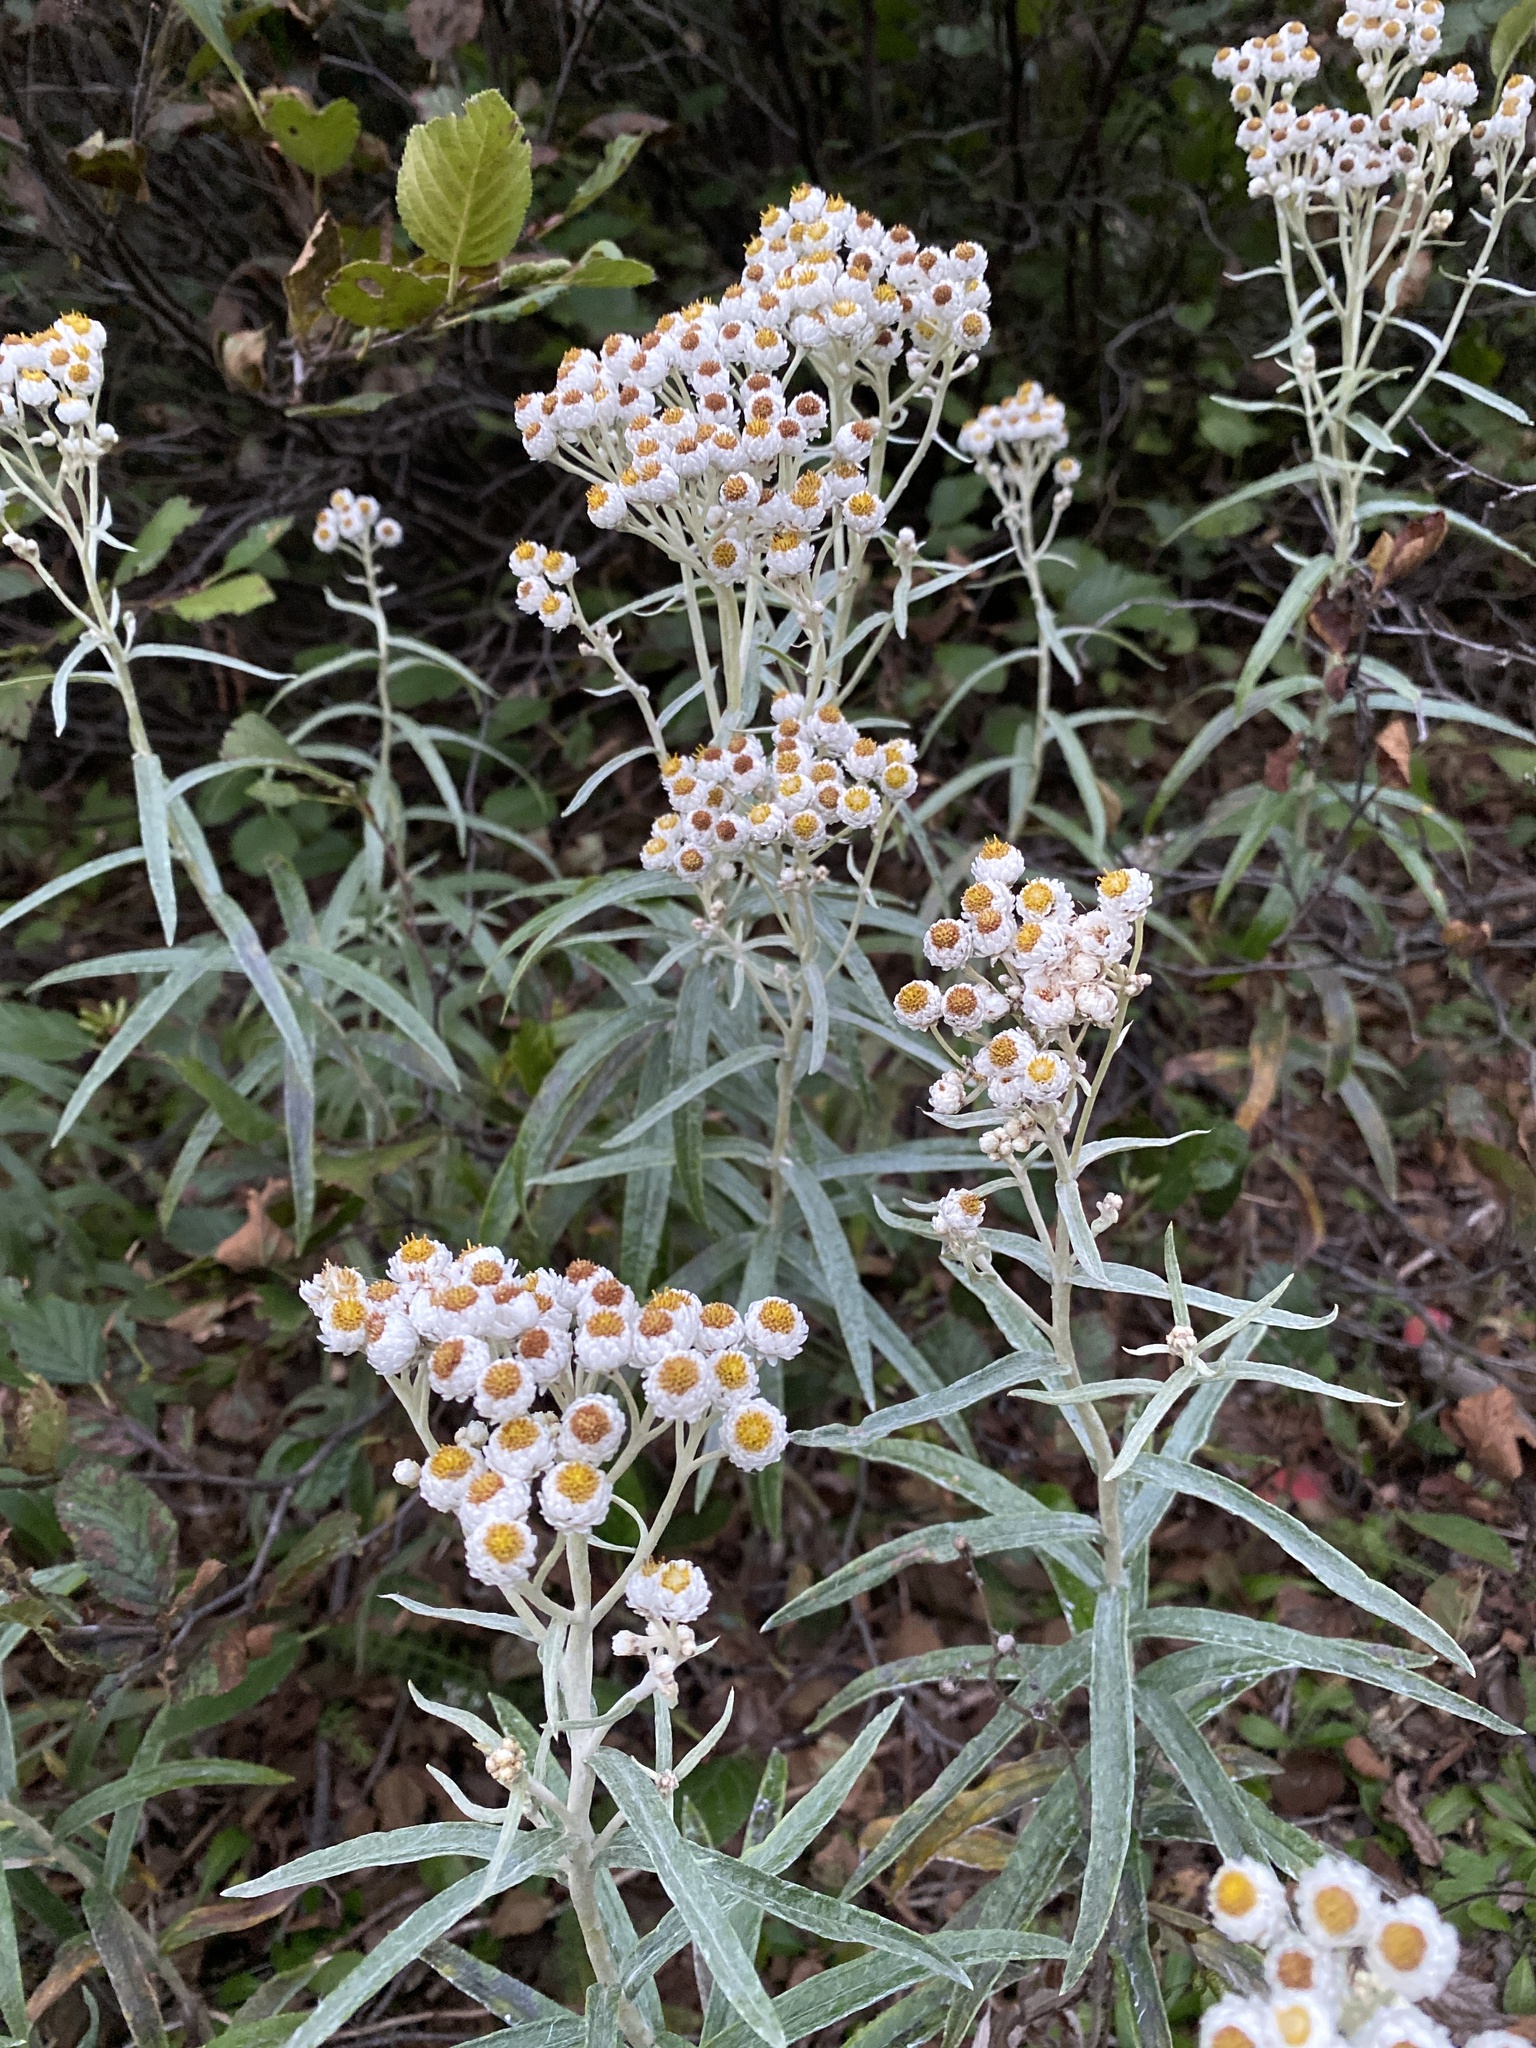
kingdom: Plantae
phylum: Tracheophyta
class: Magnoliopsida
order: Asterales
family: Asteraceae
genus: Anaphalis
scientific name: Anaphalis margaritacea
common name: Pearly everlasting
